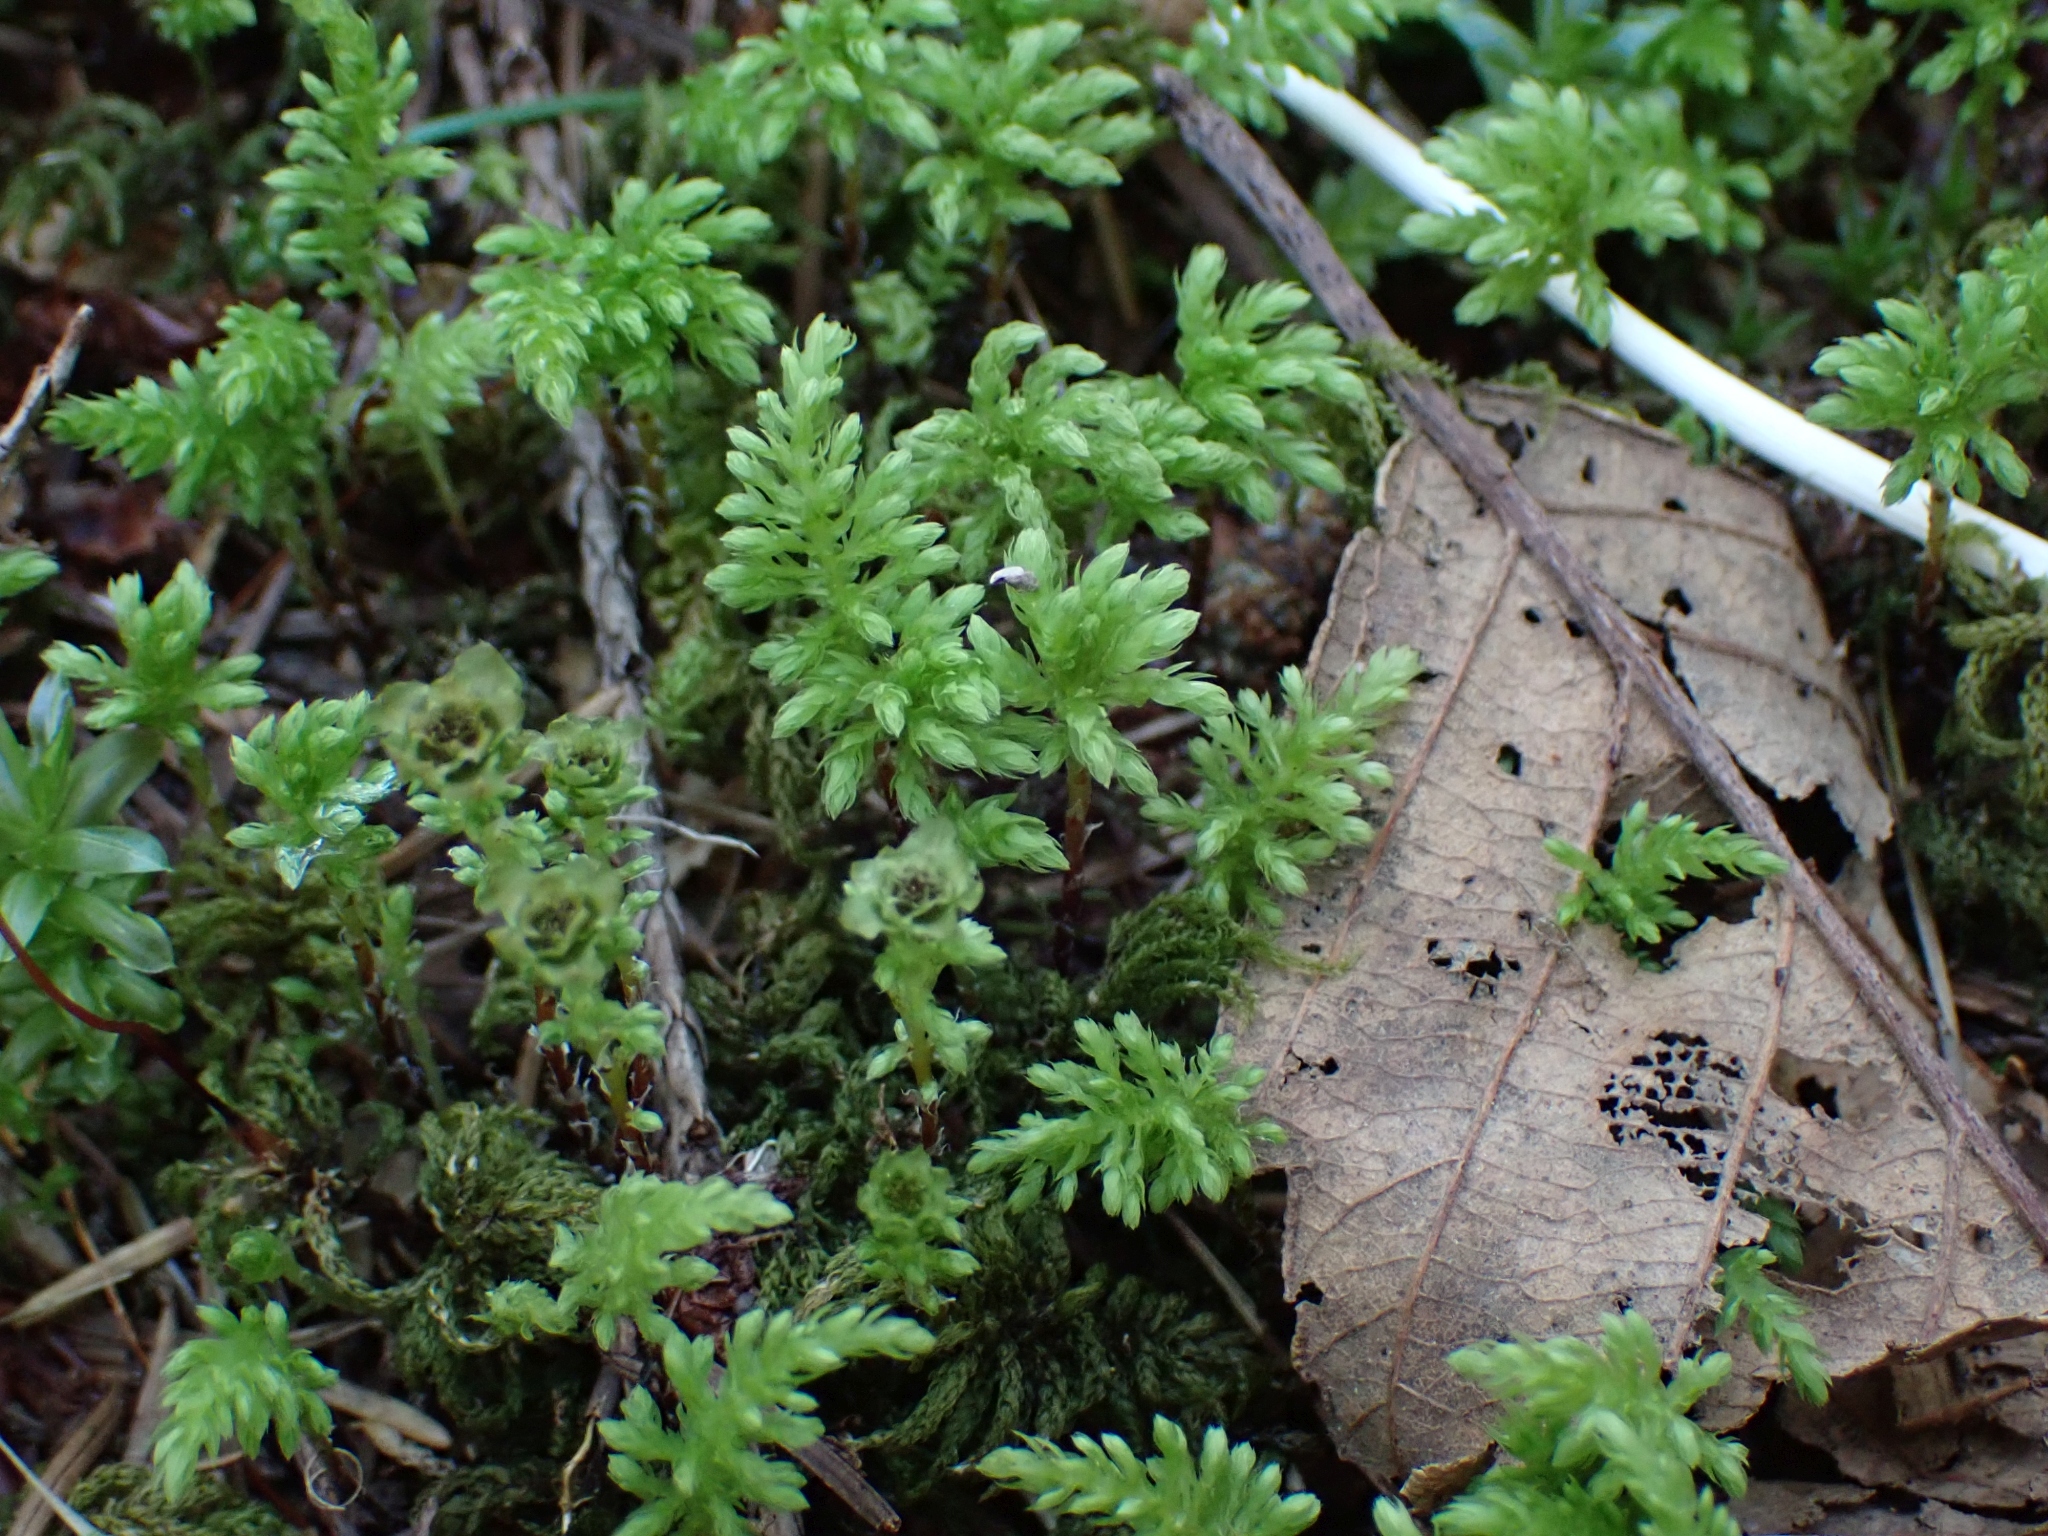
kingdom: Plantae
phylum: Bryophyta
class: Bryopsida
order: Bryales
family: Mniaceae
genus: Leucolepis
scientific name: Leucolepis acanthoneura
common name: Leucolepis umbrella moss
